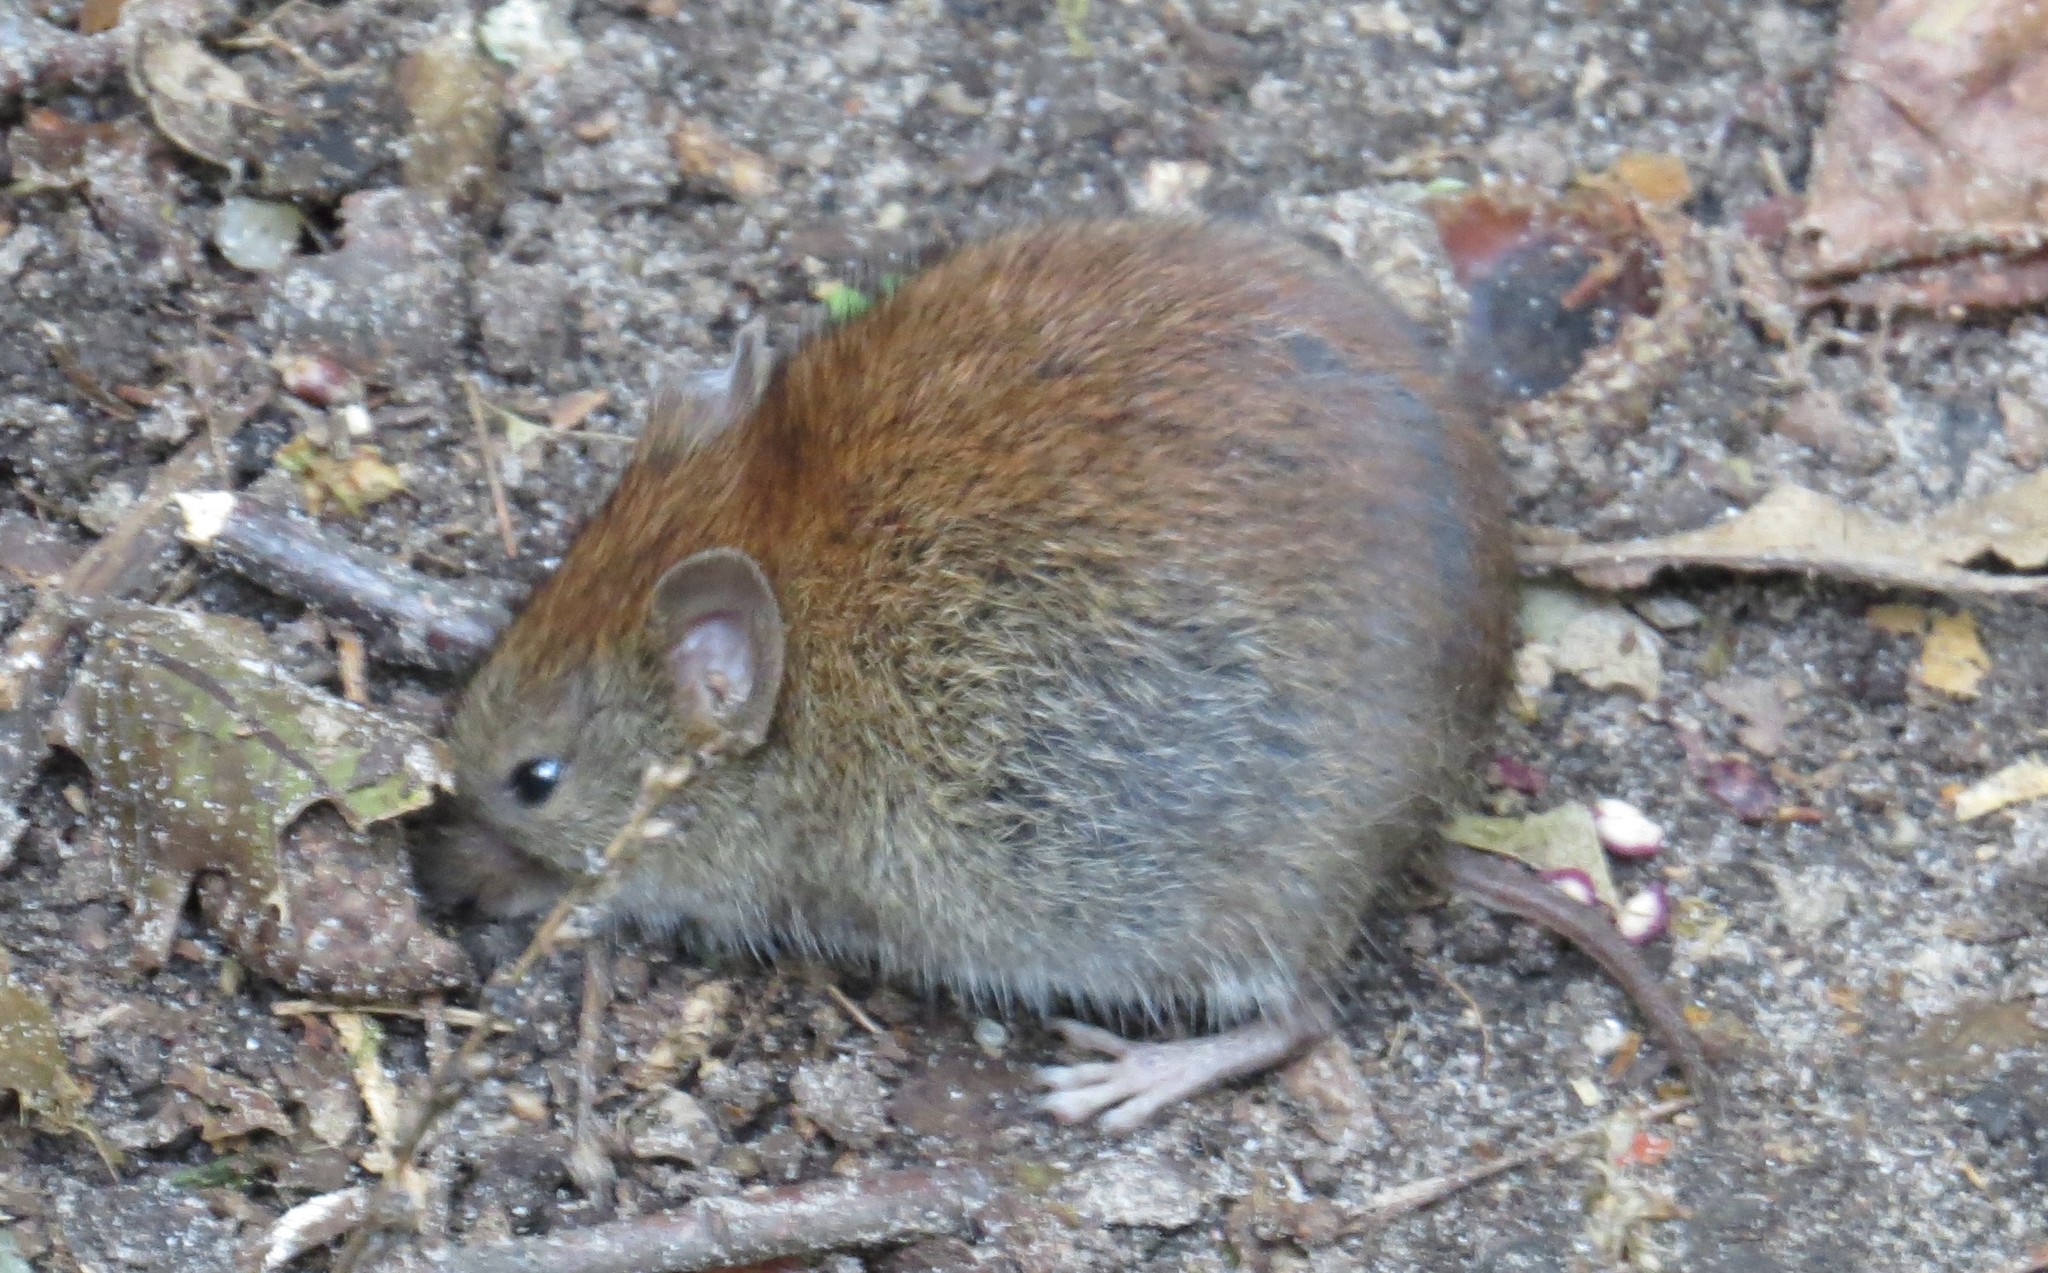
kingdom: Animalia
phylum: Chordata
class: Mammalia
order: Rodentia
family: Cricetidae
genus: Myodes
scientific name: Myodes gapperi
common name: Southern red-backed vole
